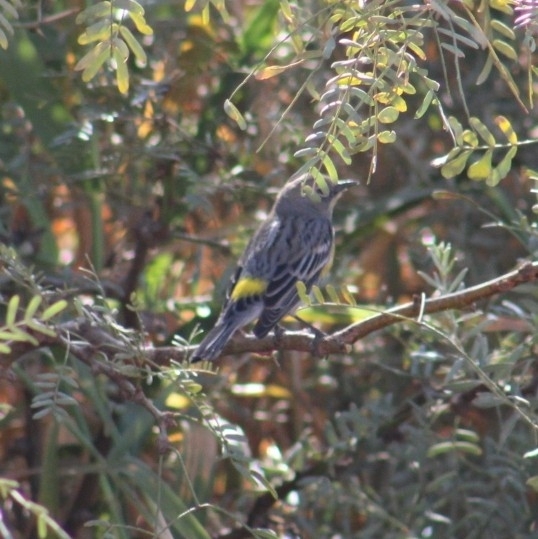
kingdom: Animalia
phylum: Chordata
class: Aves
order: Passeriformes
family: Parulidae
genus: Setophaga
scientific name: Setophaga coronata
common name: Myrtle warbler
